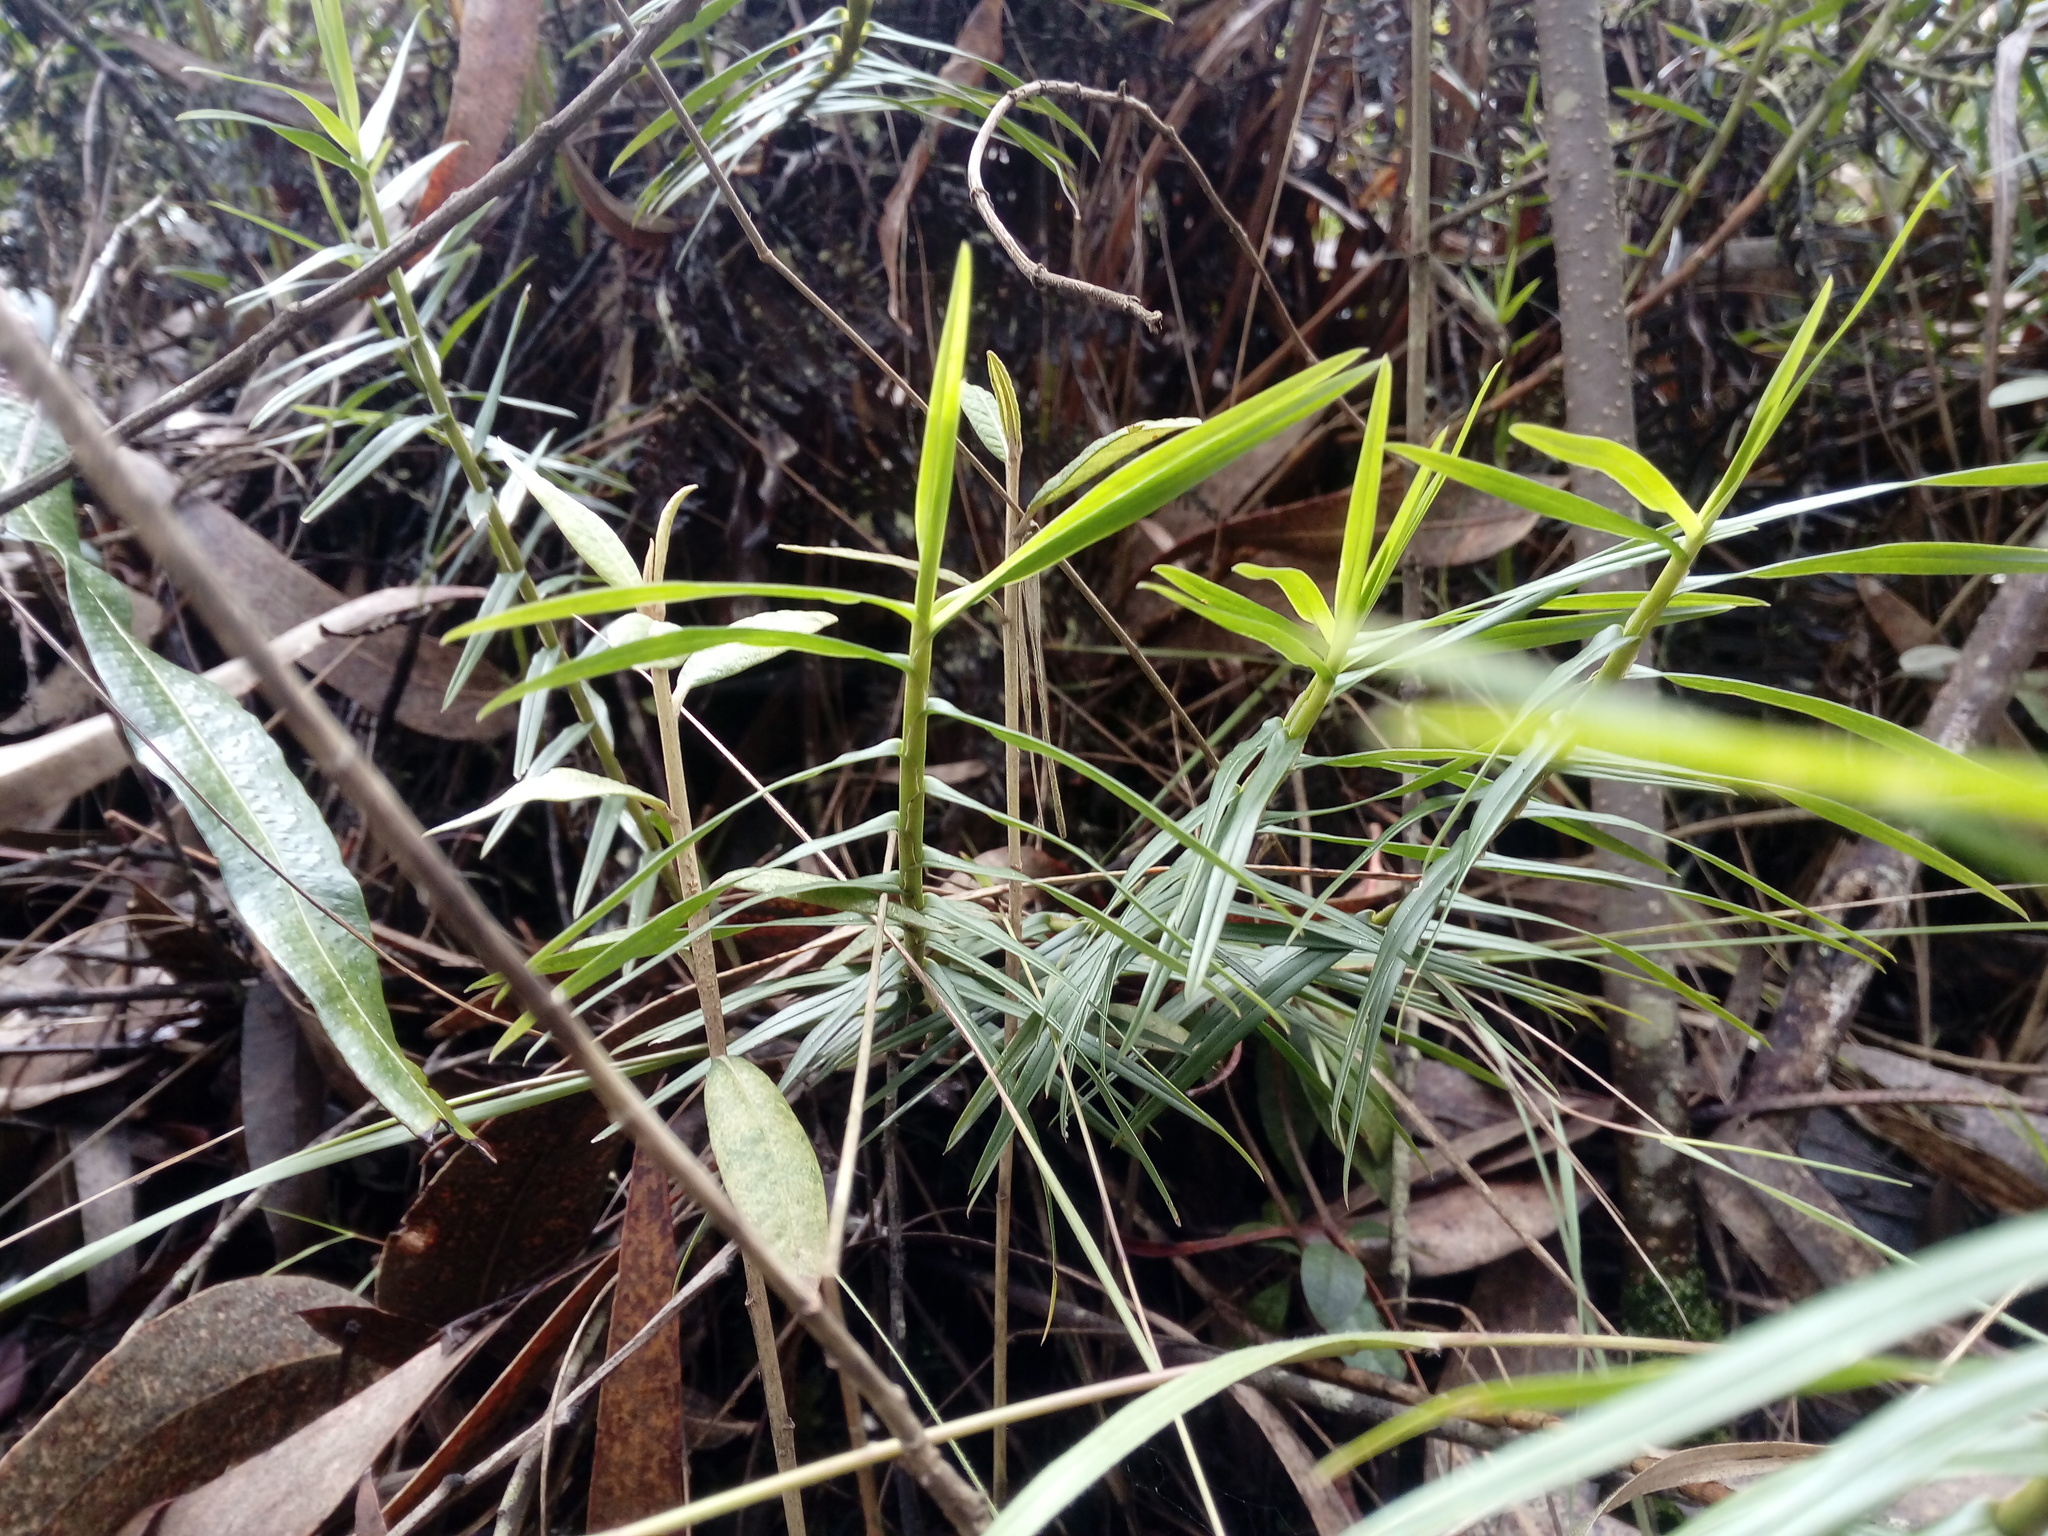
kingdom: Plantae
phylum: Tracheophyta
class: Liliopsida
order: Asparagales
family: Orchidaceae
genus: Maxillaria
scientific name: Maxillaria graminifolia
